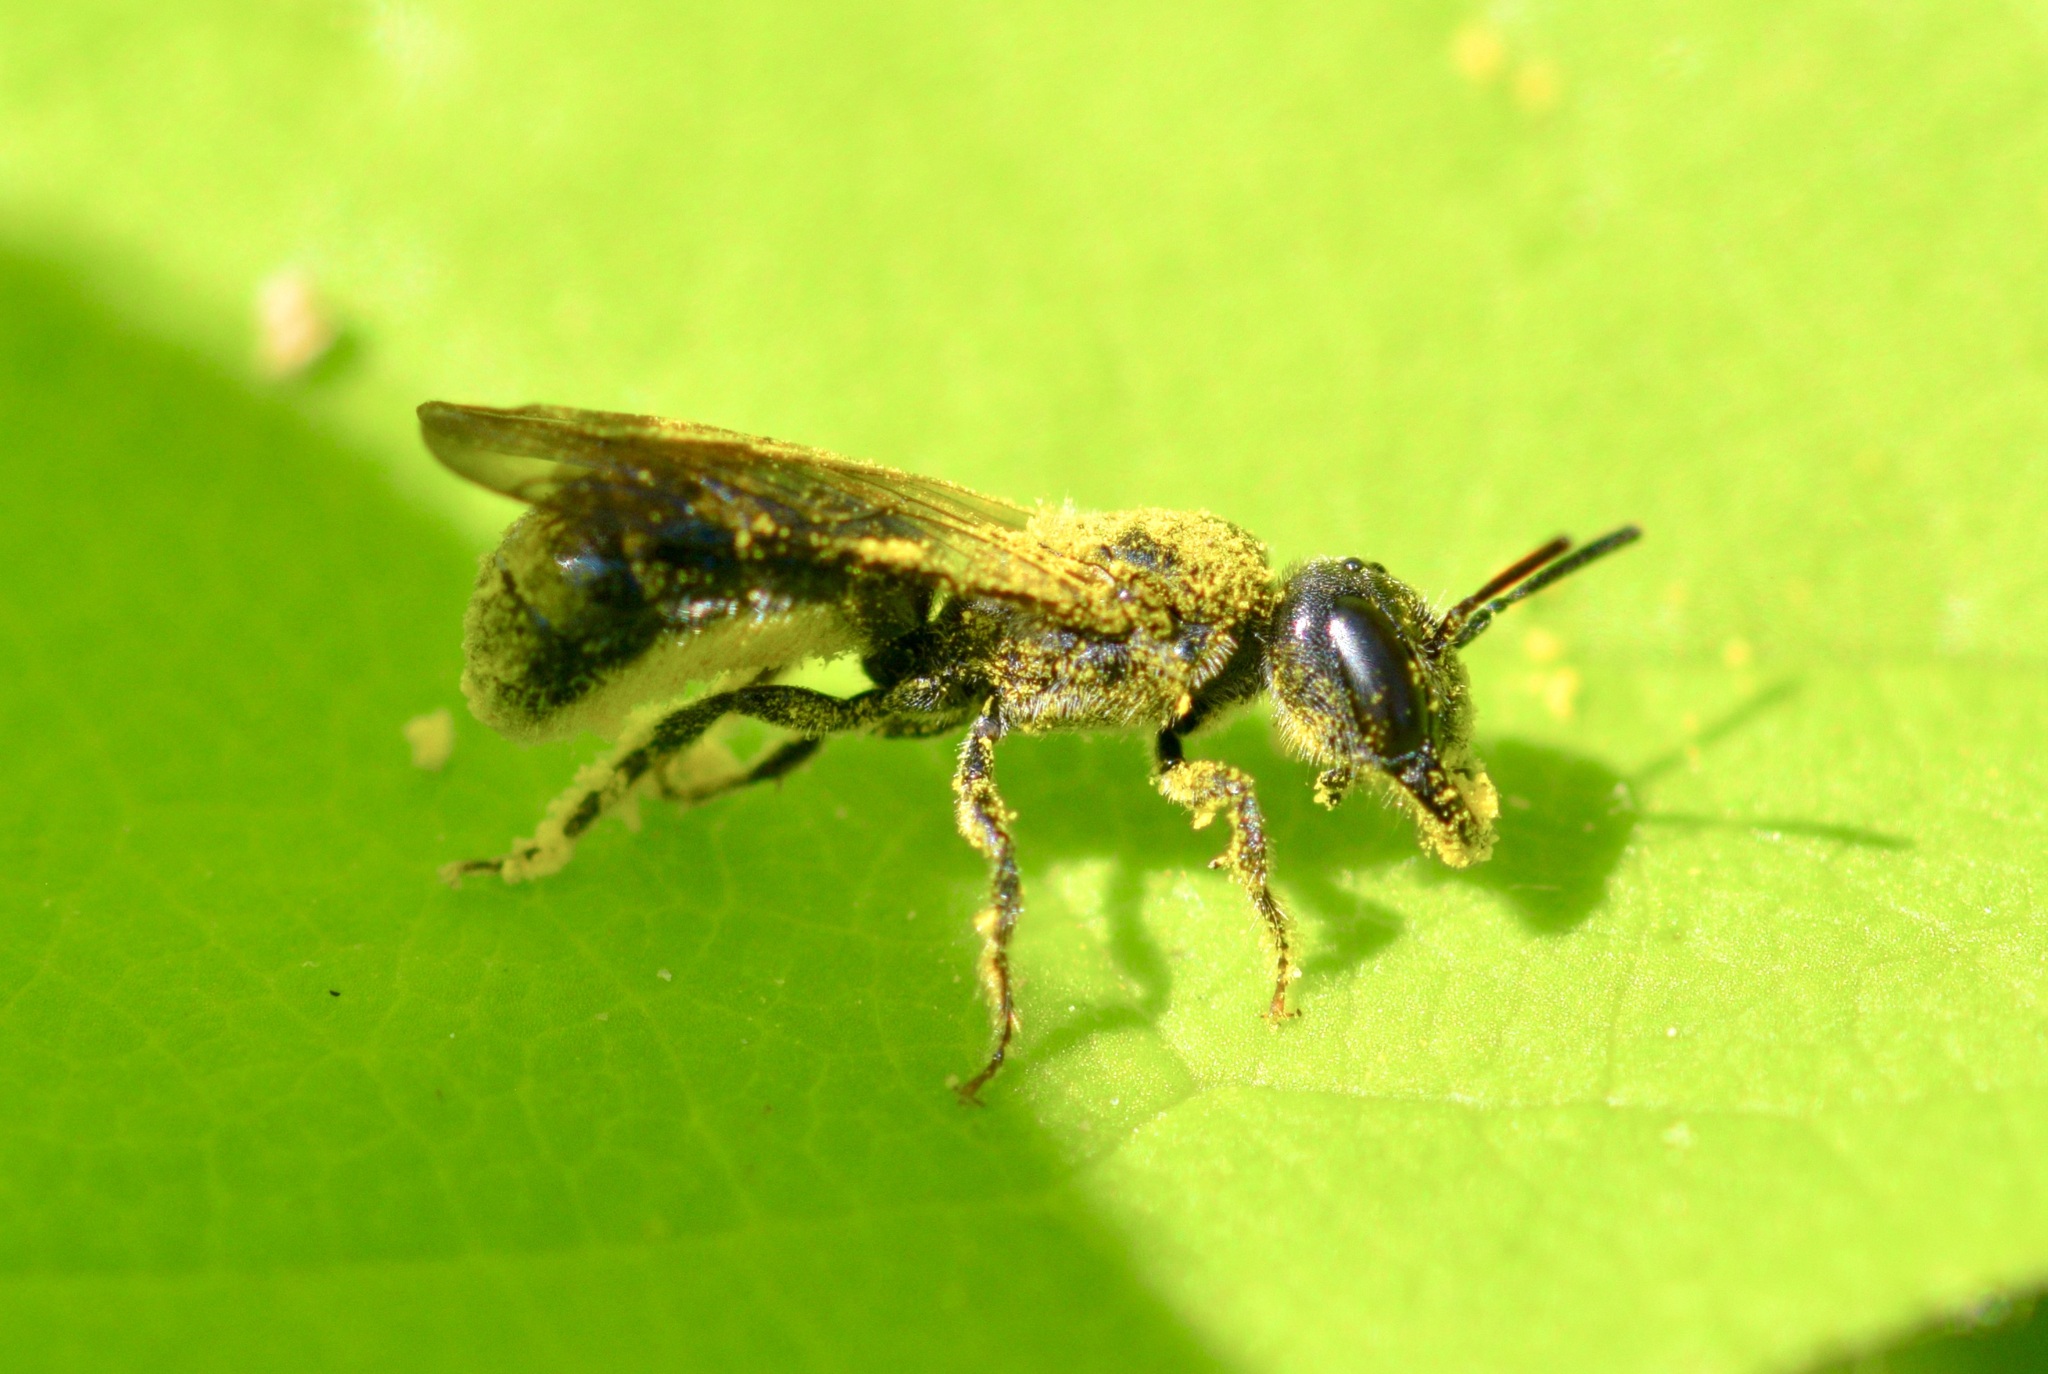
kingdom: Animalia
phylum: Arthropoda
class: Insecta
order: Hymenoptera
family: Megachilidae
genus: Chelostoma
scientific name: Chelostoma philadelphi
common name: Mock-orange scissor bee
